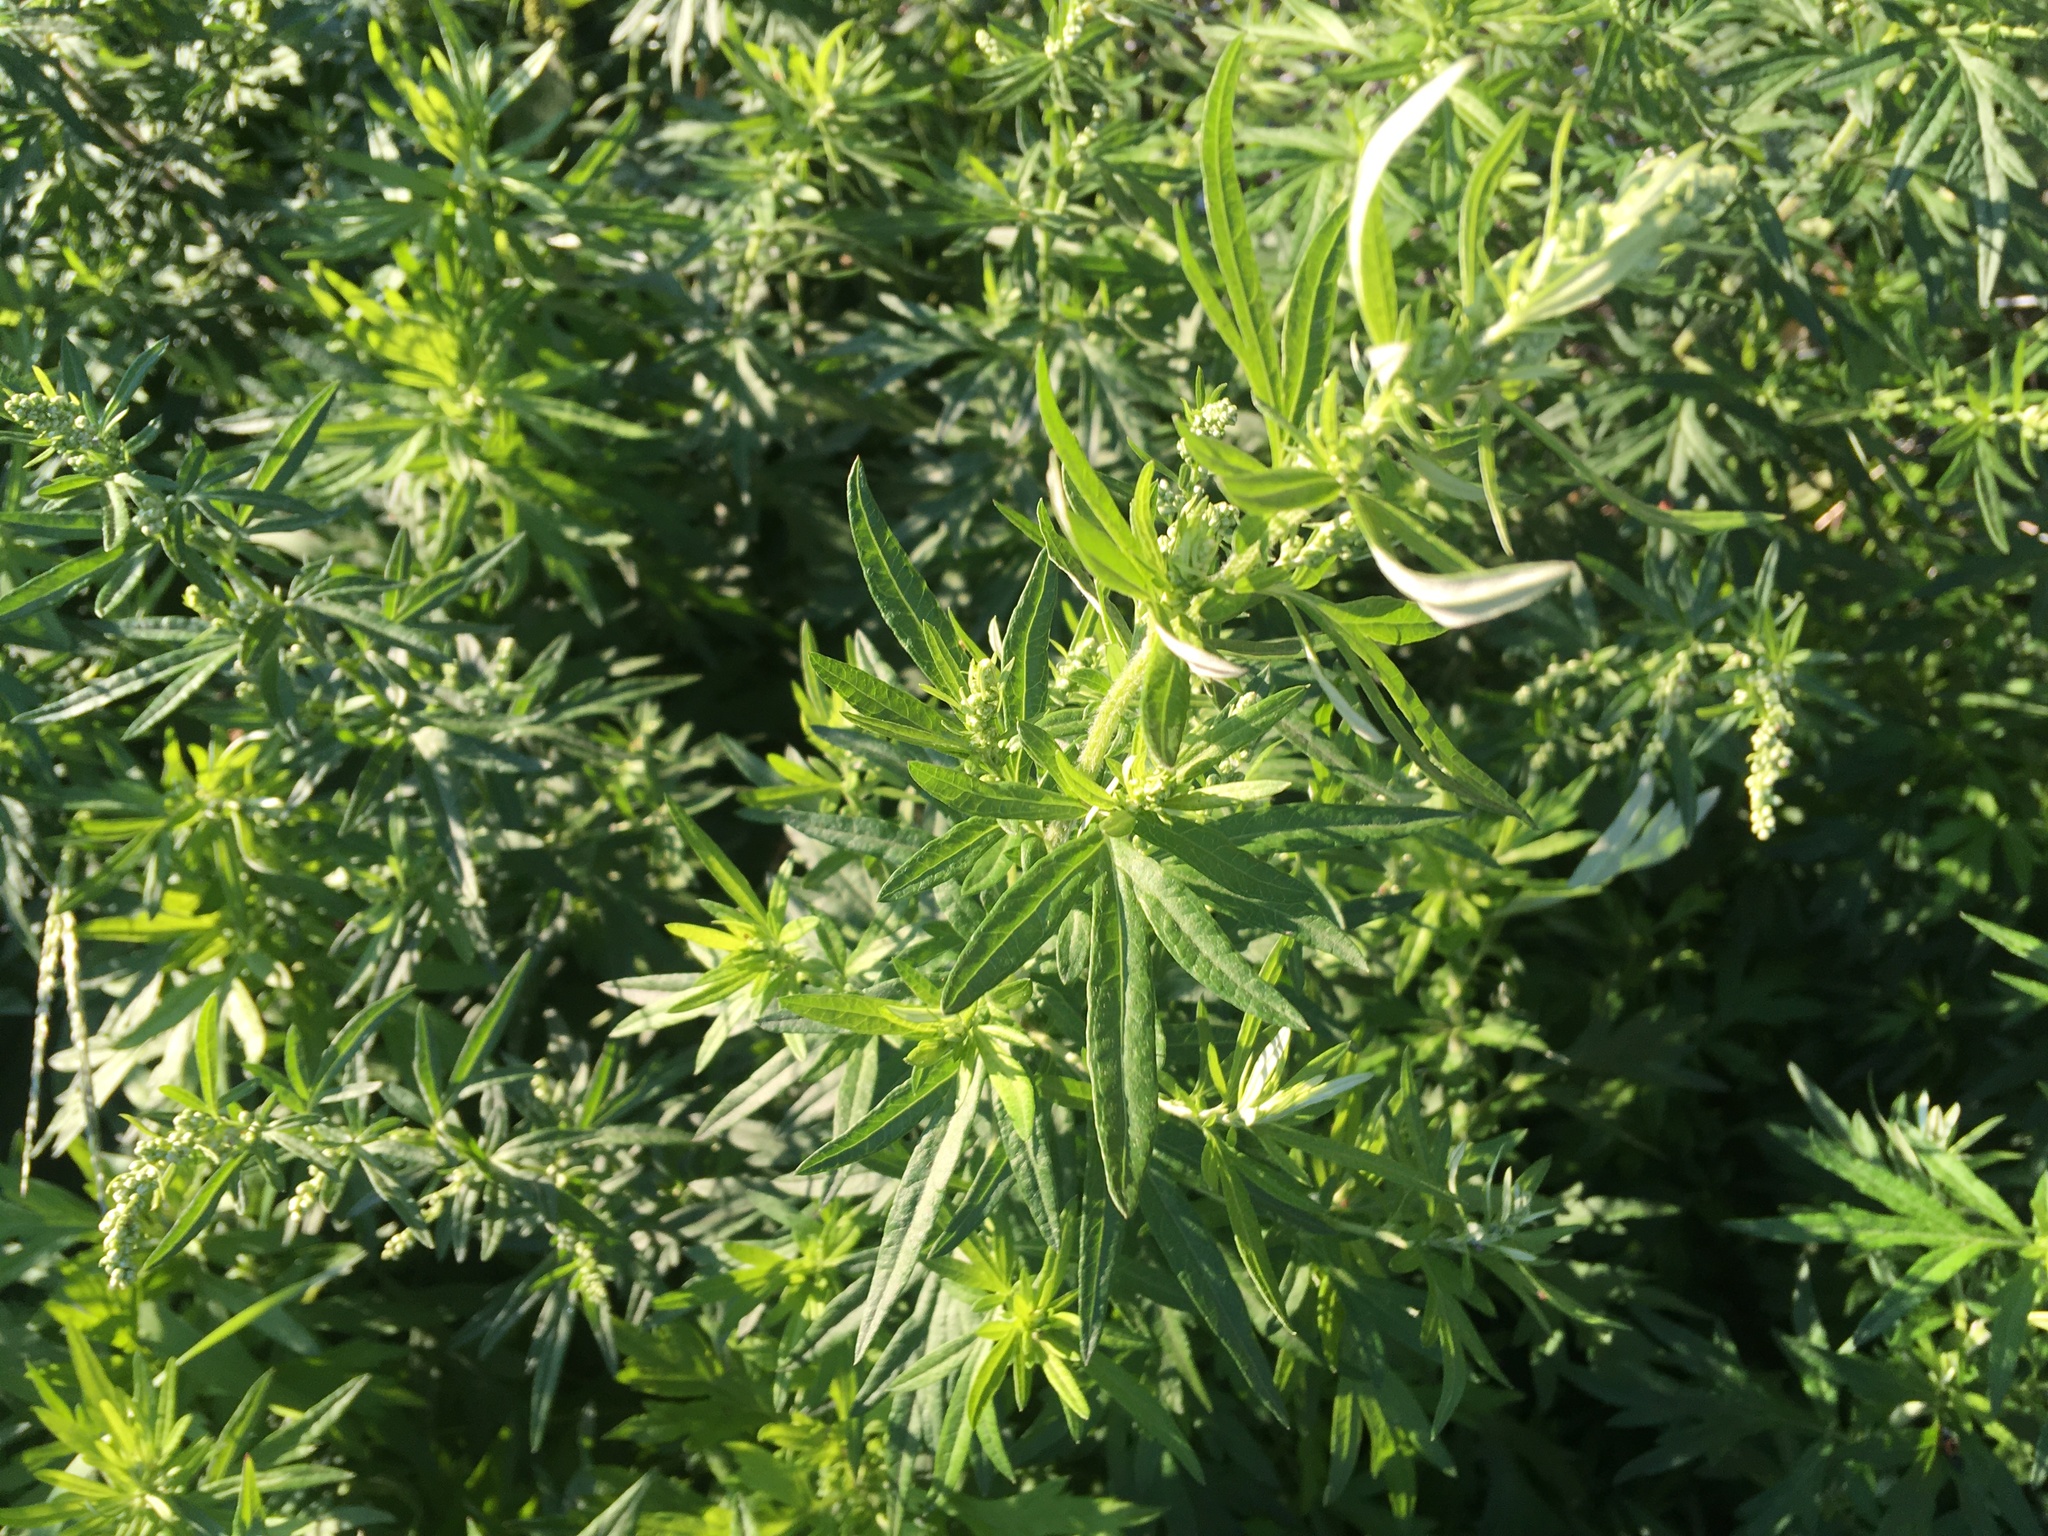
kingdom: Plantae
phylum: Tracheophyta
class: Magnoliopsida
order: Asterales
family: Asteraceae
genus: Artemisia
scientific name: Artemisia vulgaris
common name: Mugwort
